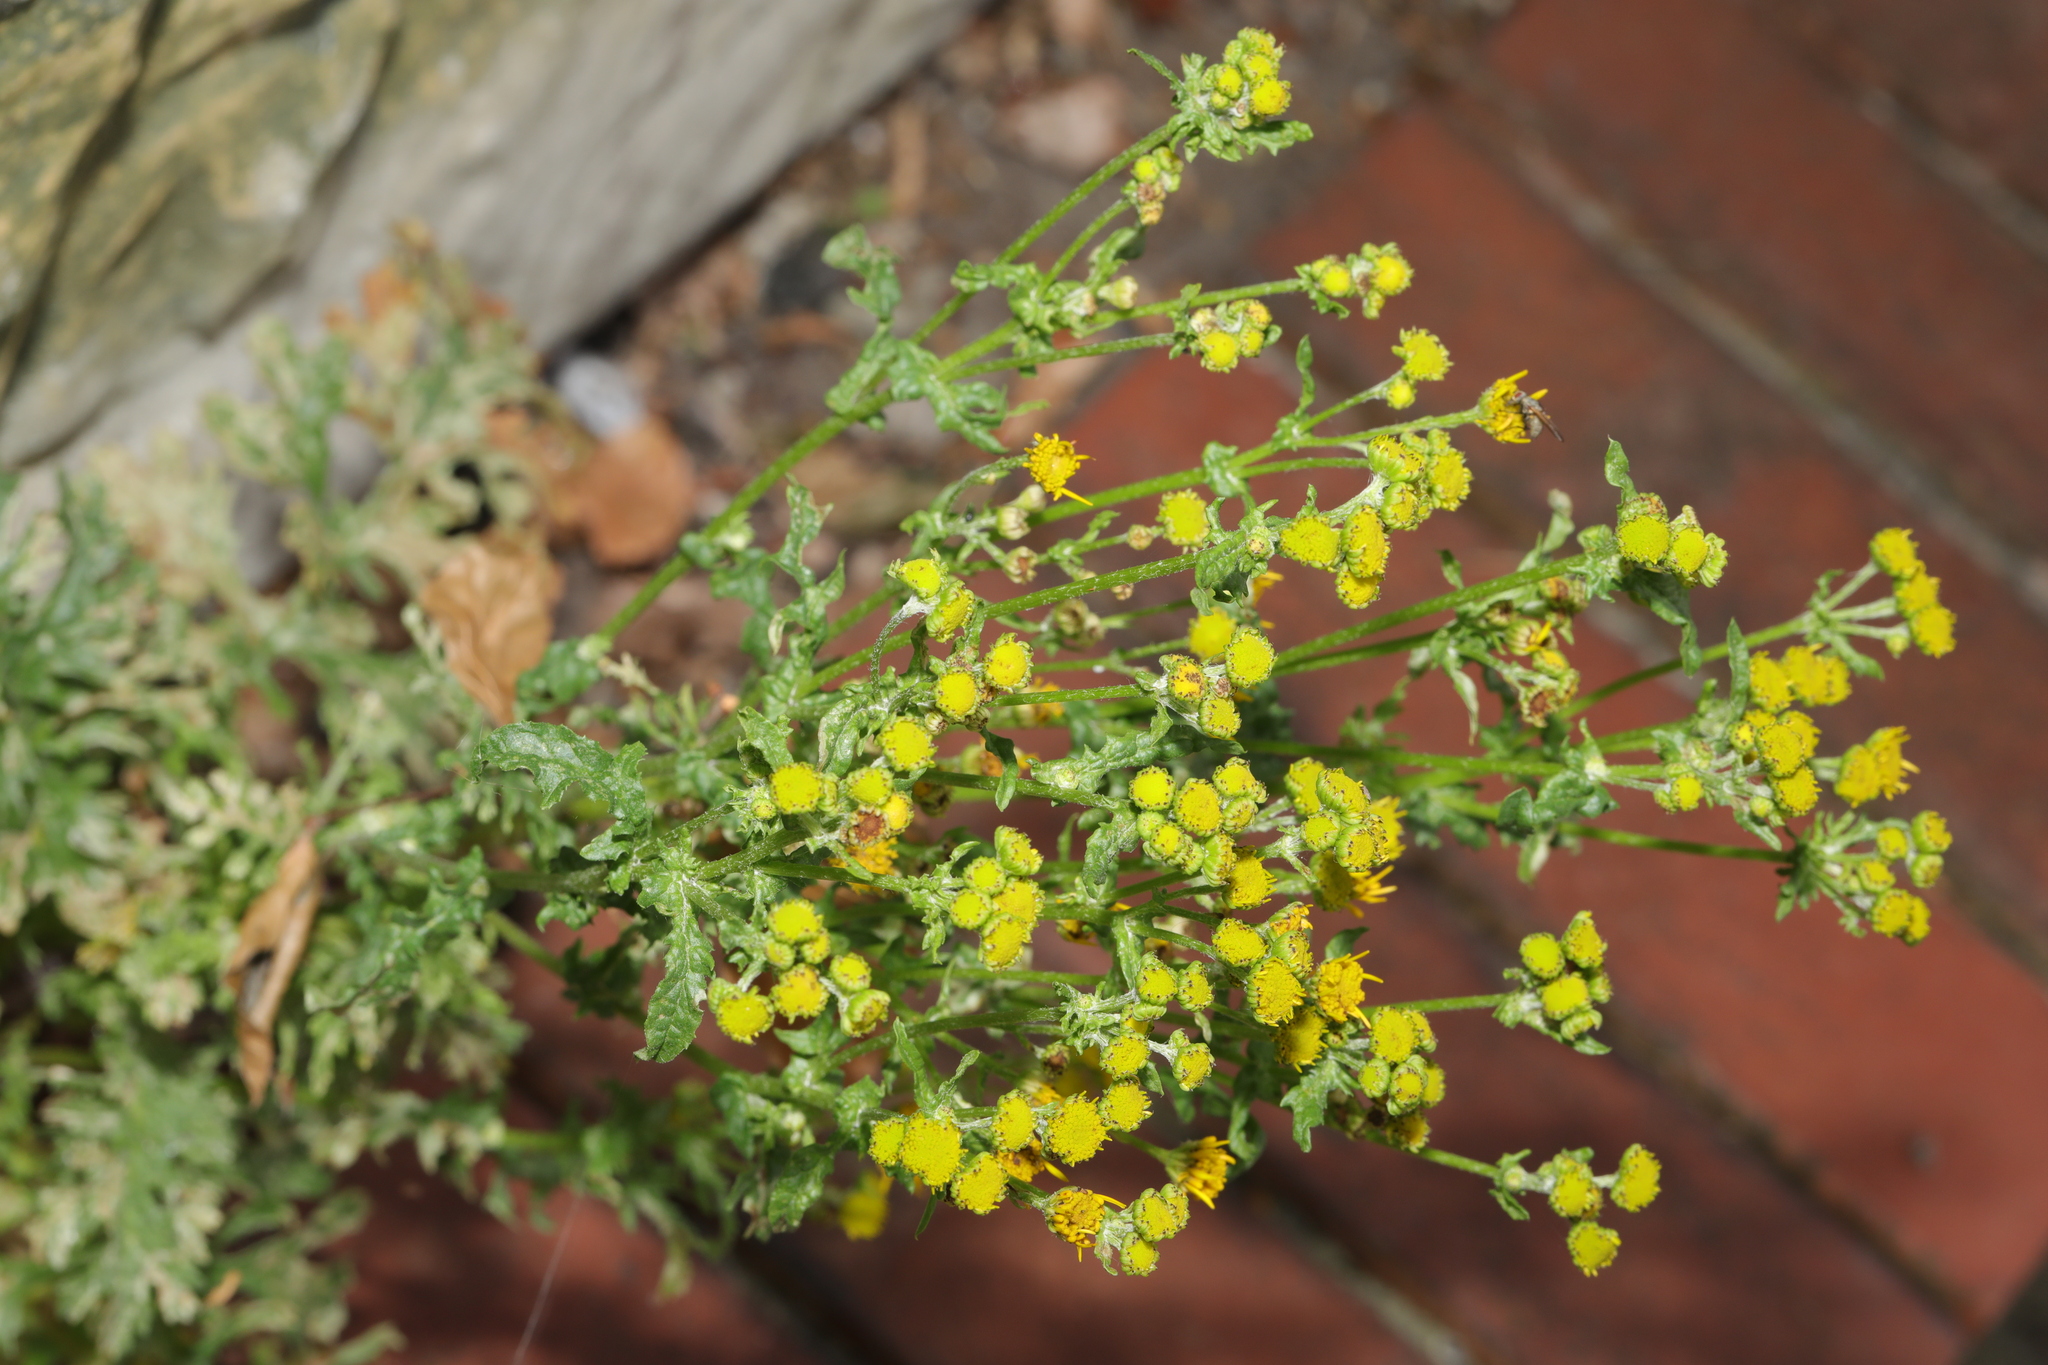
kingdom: Plantae
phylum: Tracheophyta
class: Magnoliopsida
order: Asterales
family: Asteraceae
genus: Jacobaea
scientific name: Jacobaea vulgaris
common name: Stinking willie
